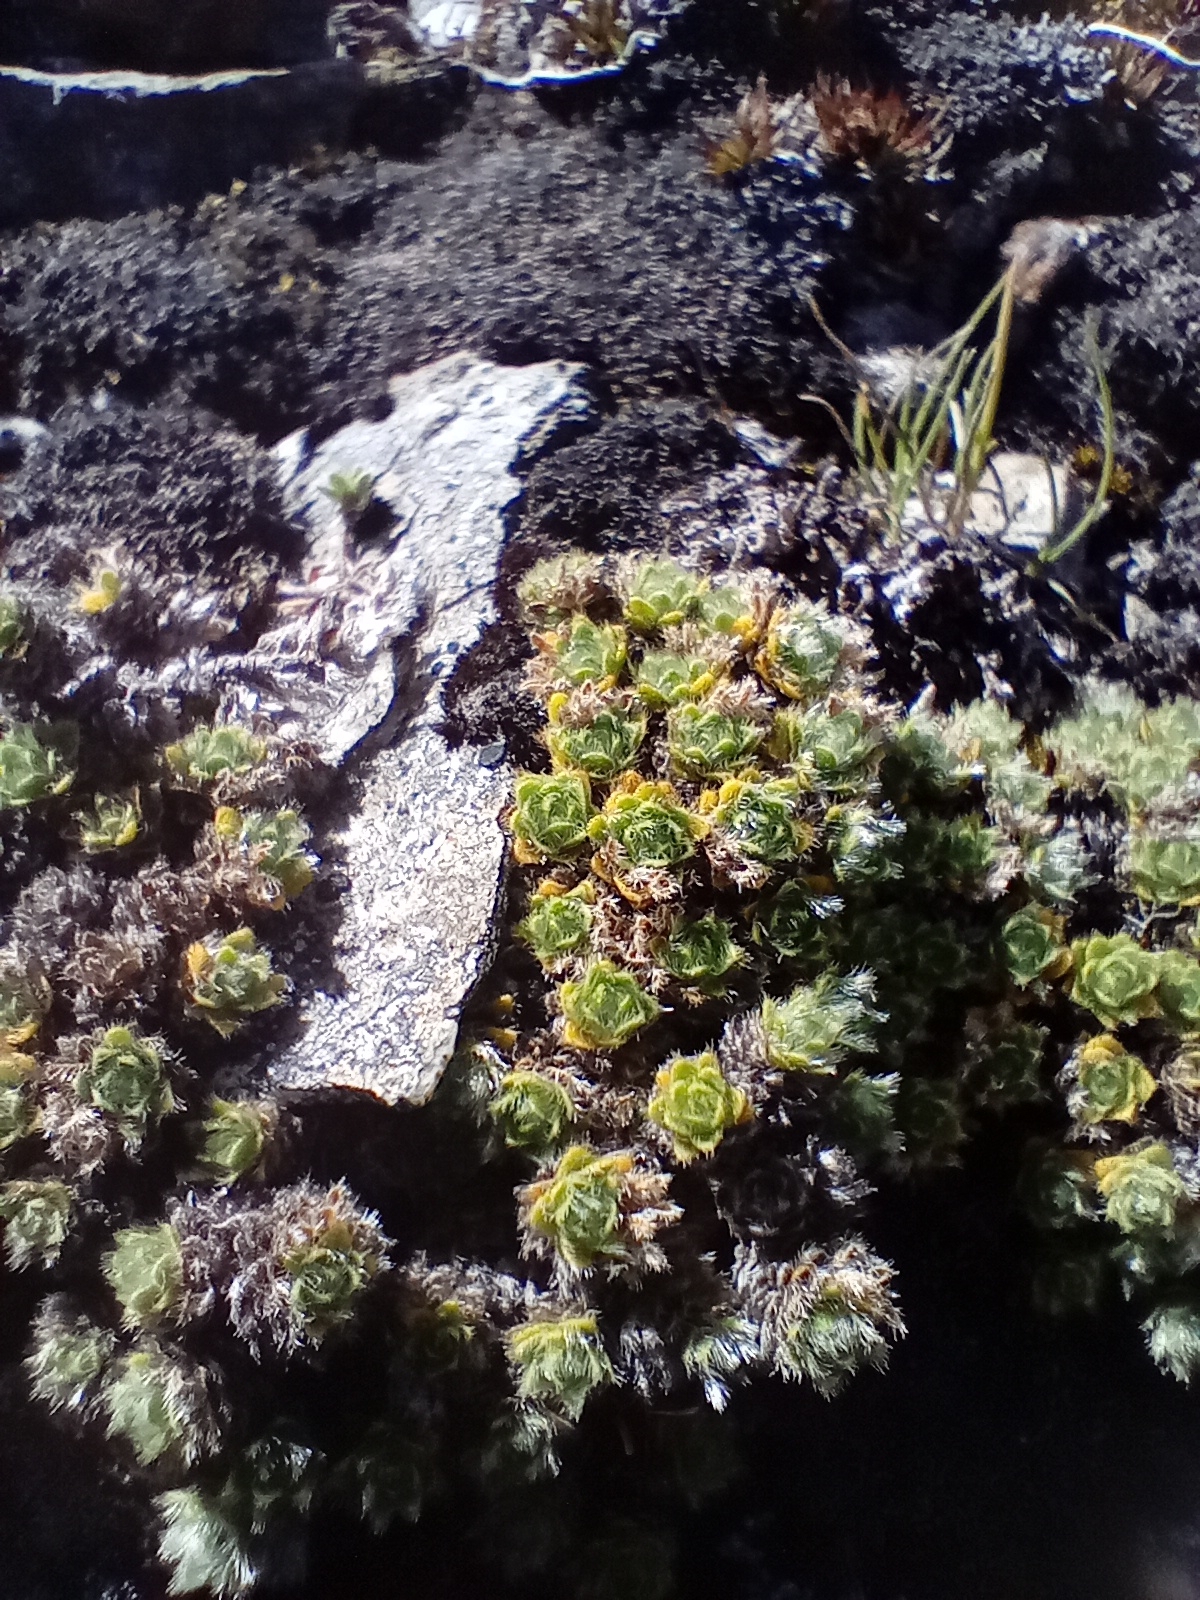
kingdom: Plantae
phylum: Tracheophyta
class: Magnoliopsida
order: Lamiales
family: Plantaginaceae
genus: Veronica
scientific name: Veronica pulvinaris
